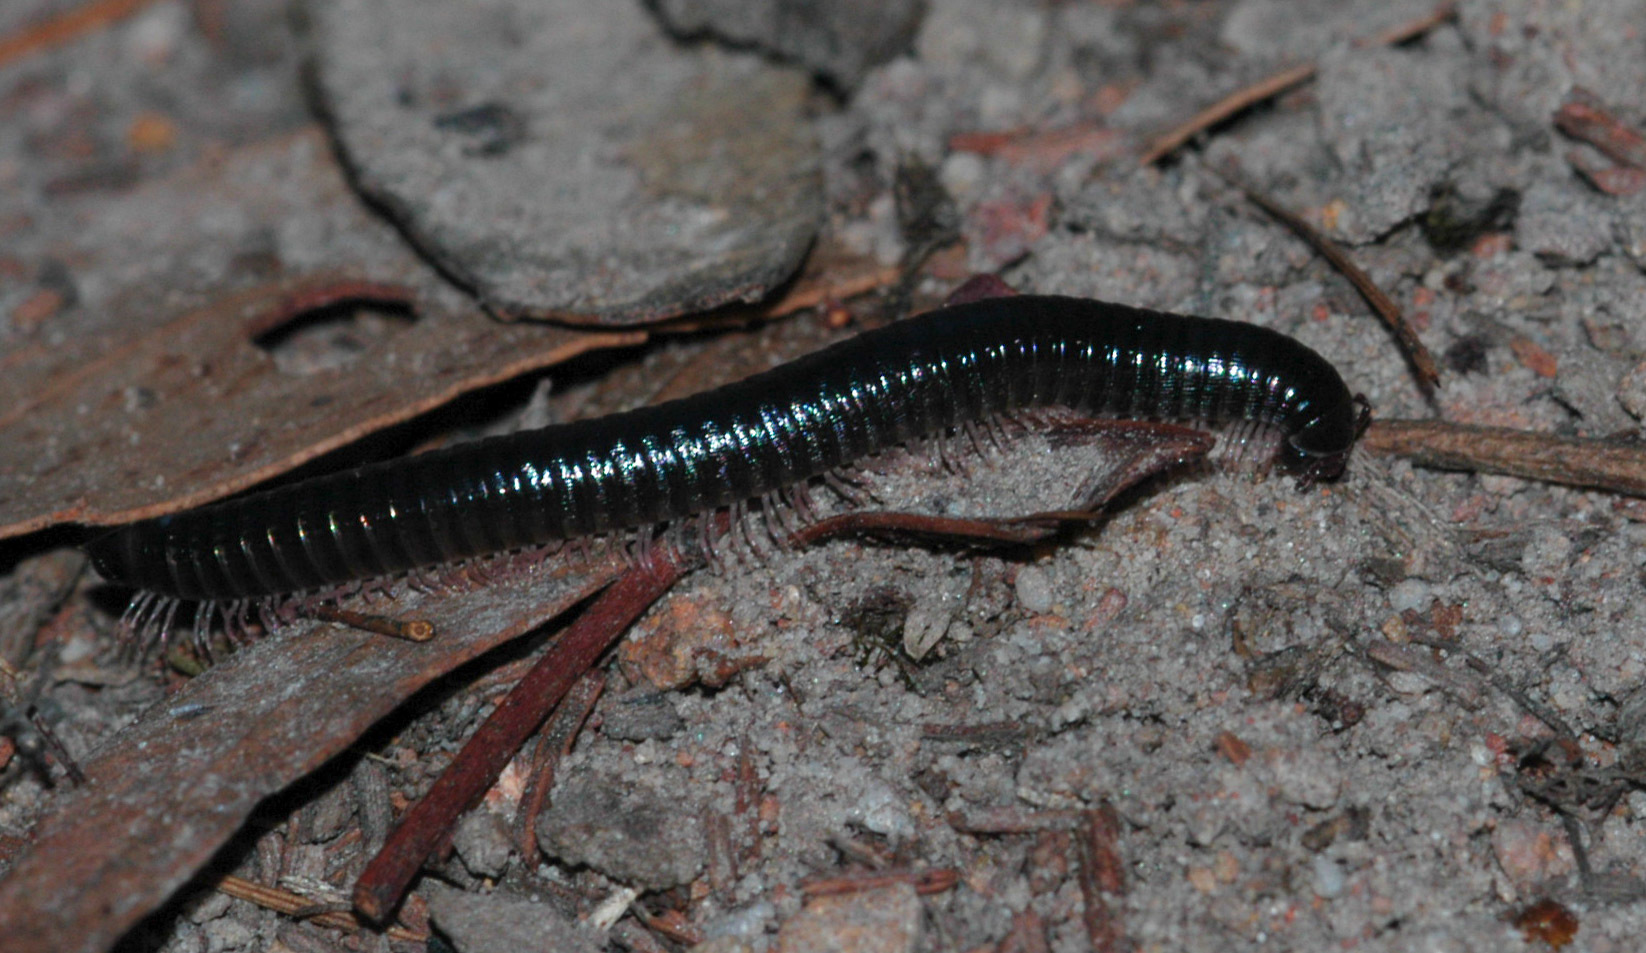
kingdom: Animalia
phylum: Arthropoda
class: Diplopoda
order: Julida
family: Julidae
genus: Ommatoiulus
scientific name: Ommatoiulus moreleti
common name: Portuguese millipede
